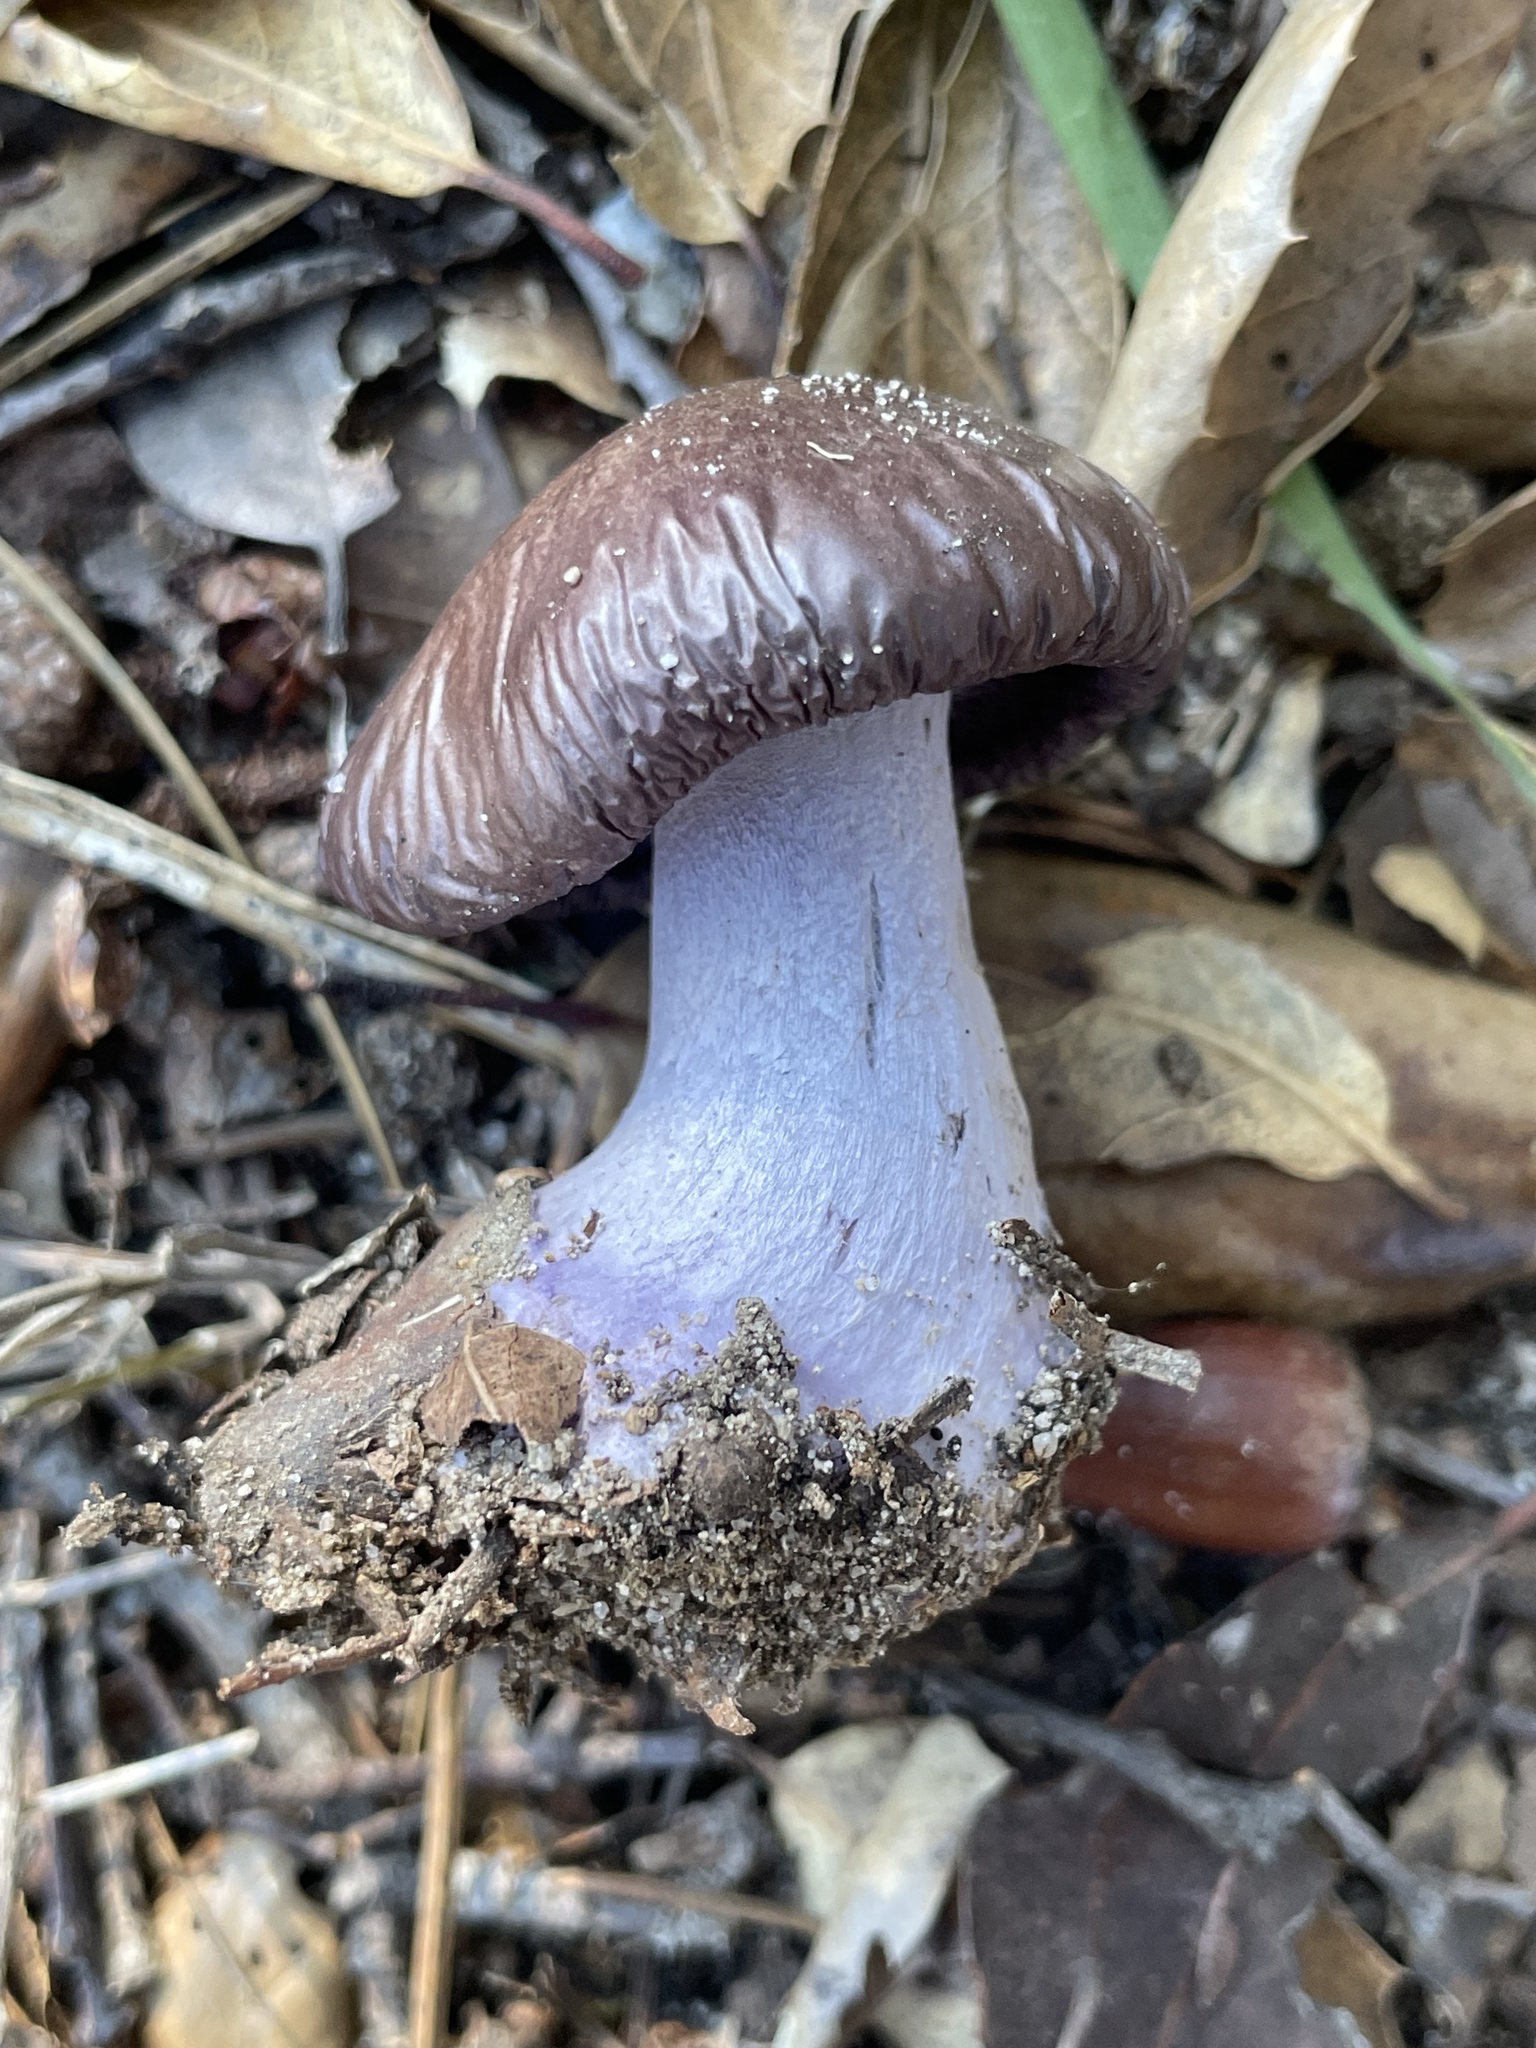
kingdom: Fungi
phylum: Basidiomycota
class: Agaricomycetes
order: Agaricales
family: Tricholomataceae
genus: Collybia
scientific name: Collybia
